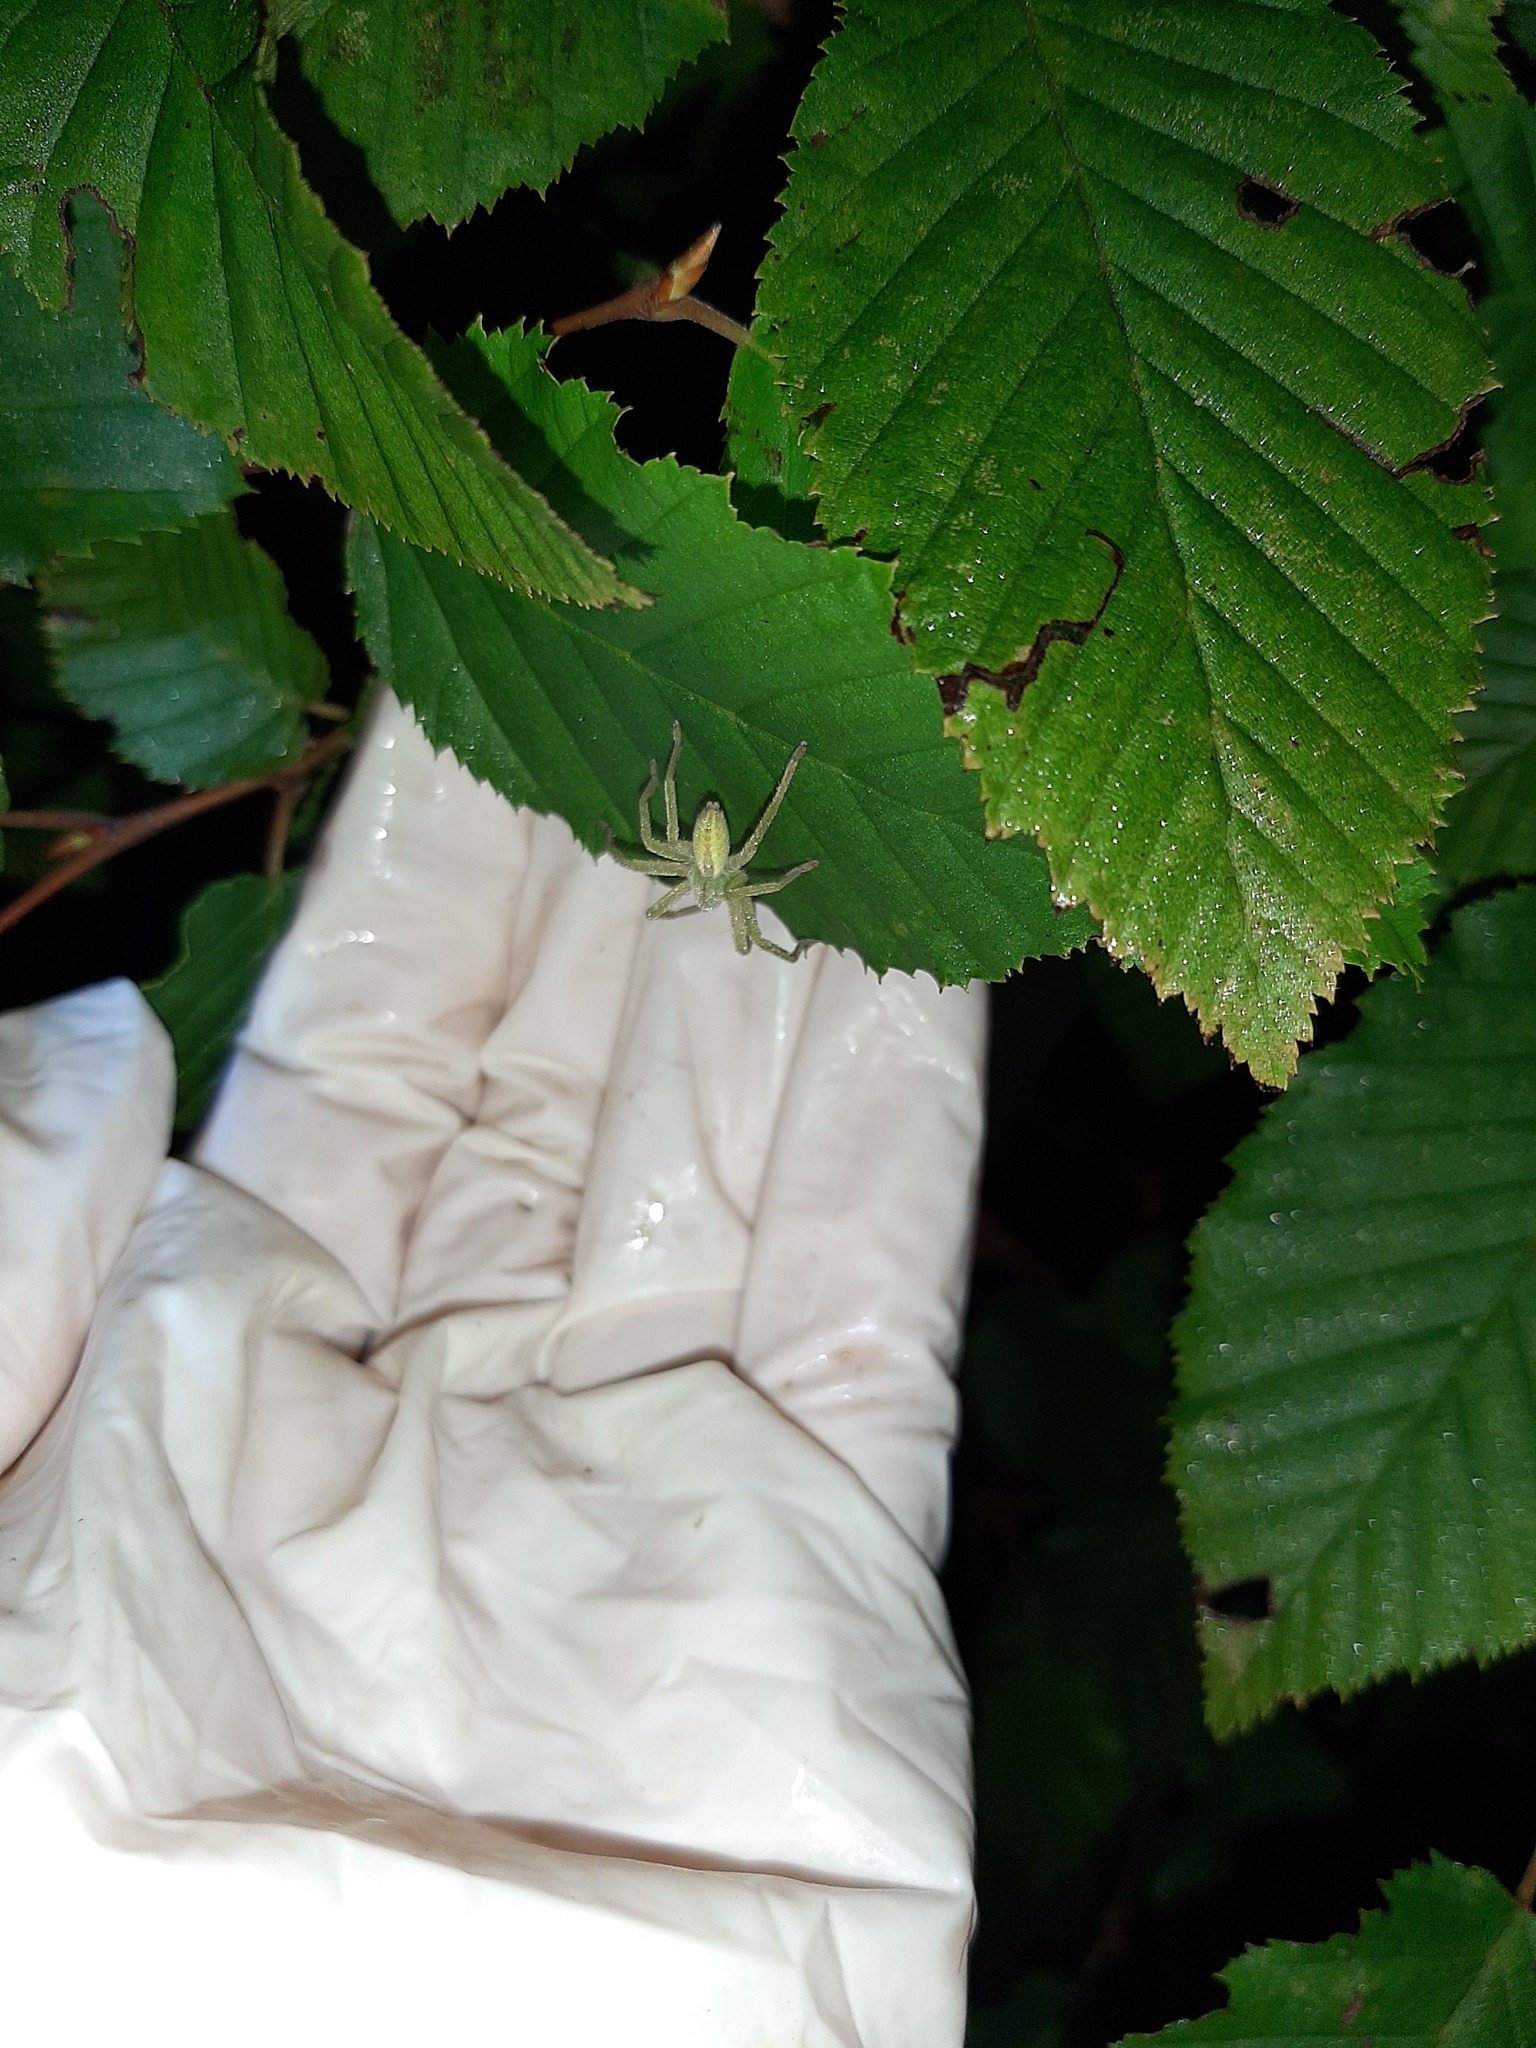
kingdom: Animalia
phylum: Arthropoda
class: Arachnida
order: Araneae
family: Sparassidae
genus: Micrommata
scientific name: Micrommata virescens
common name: Green spider
